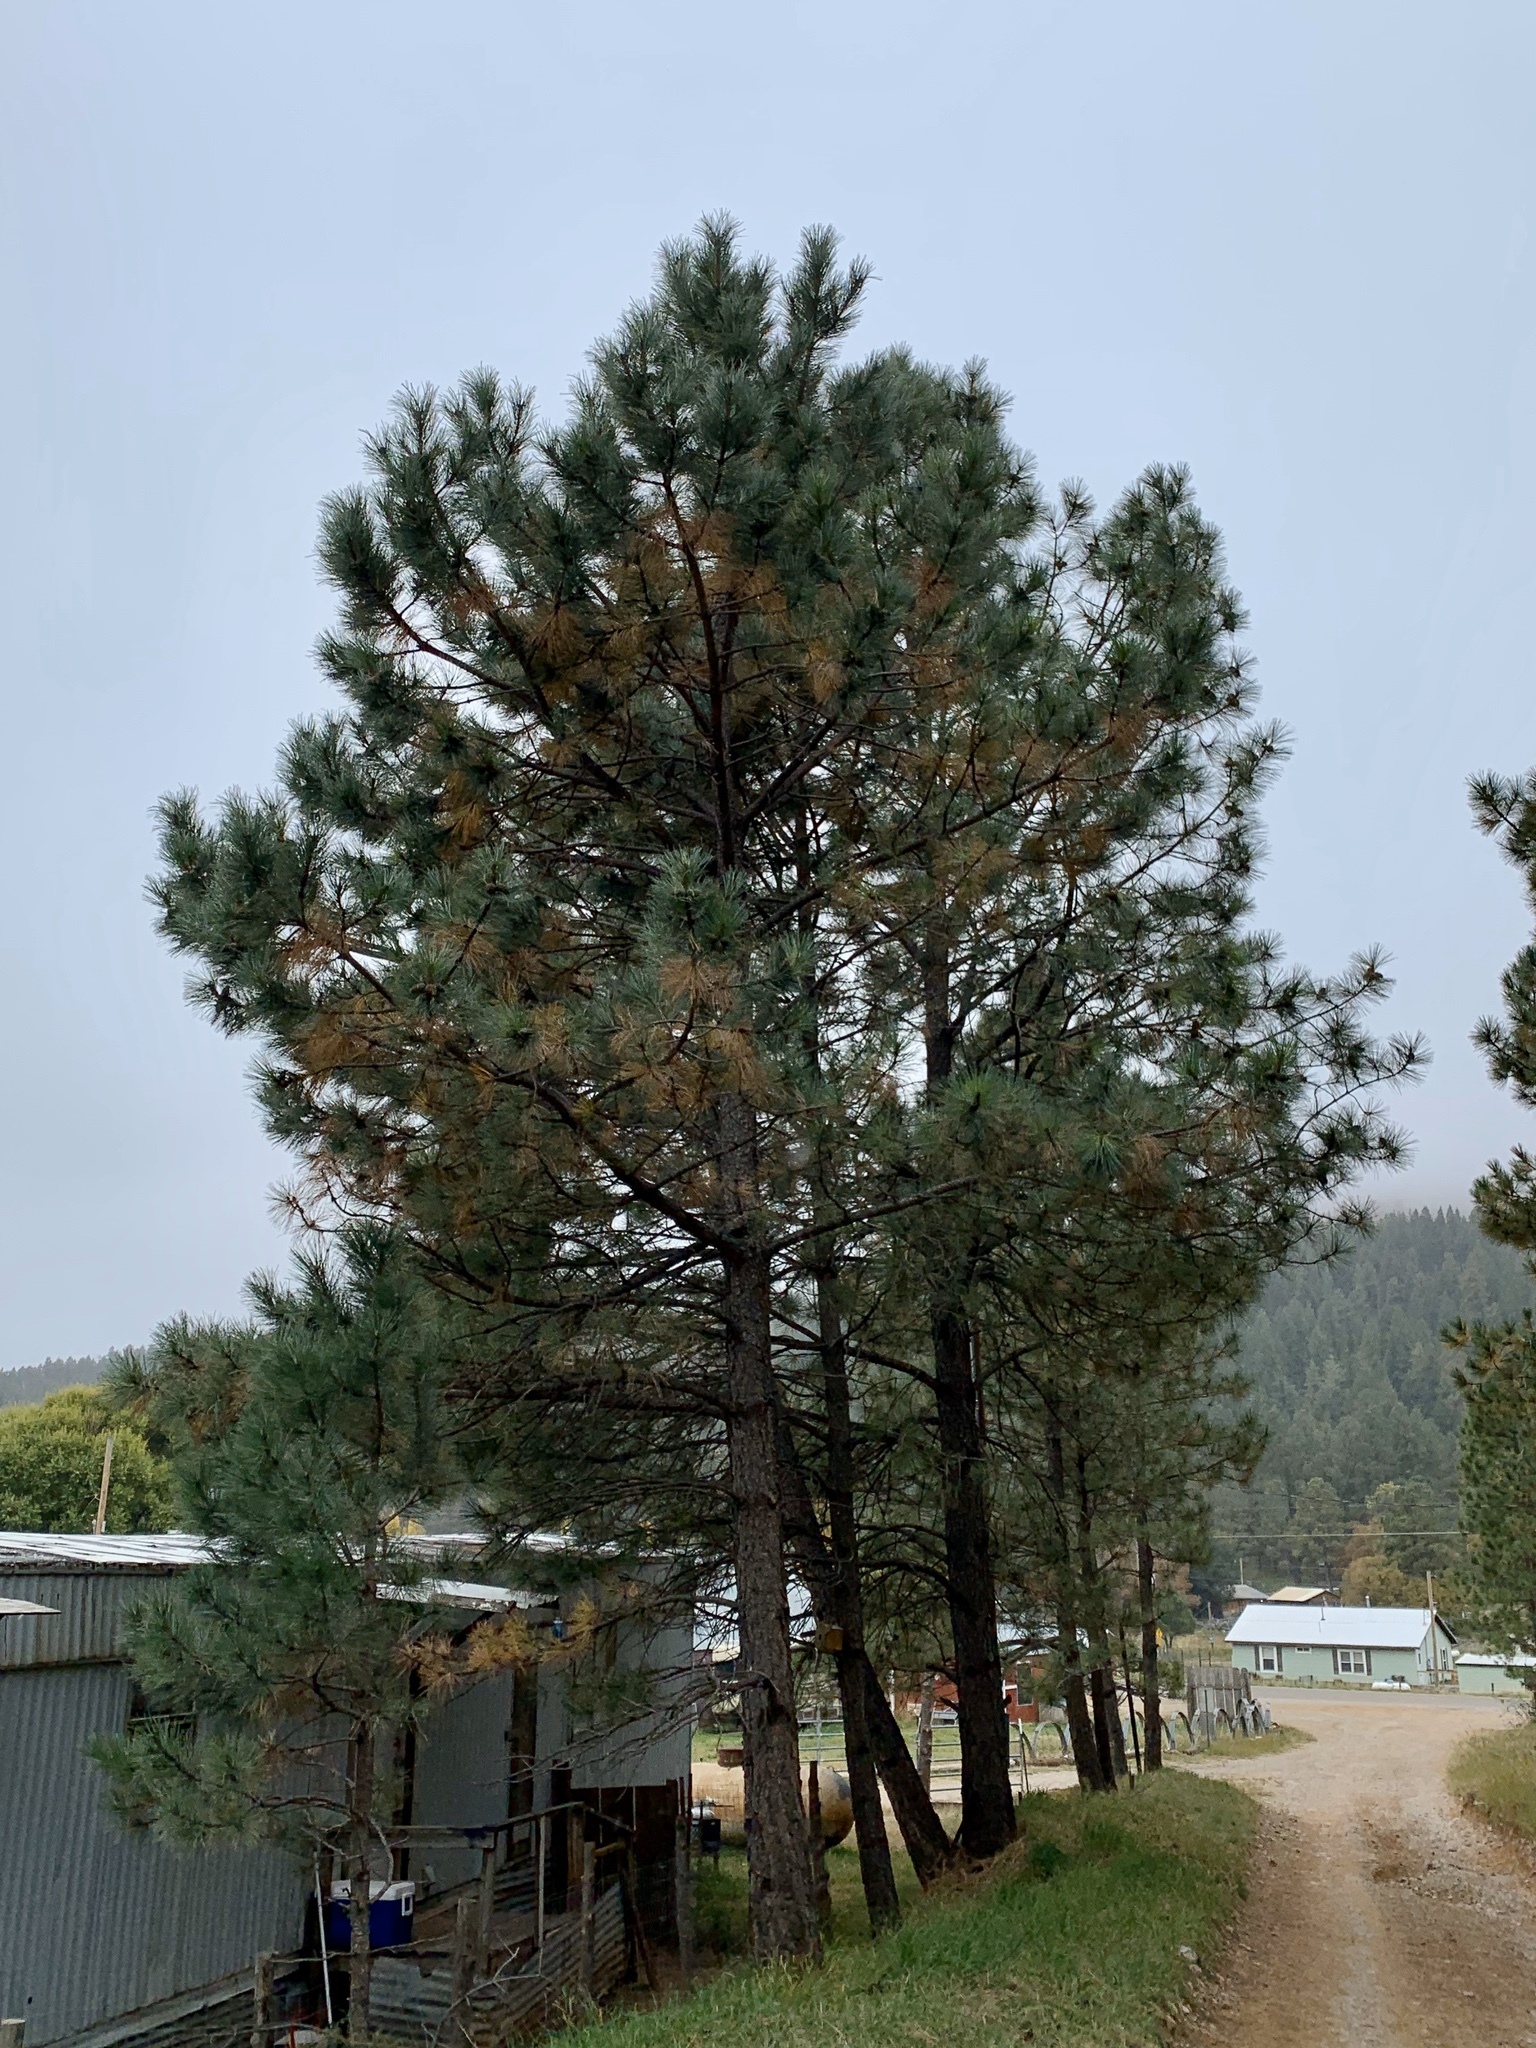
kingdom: Plantae
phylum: Tracheophyta
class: Pinopsida
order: Pinales
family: Pinaceae
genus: Pinus
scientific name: Pinus ponderosa
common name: Western yellow-pine
